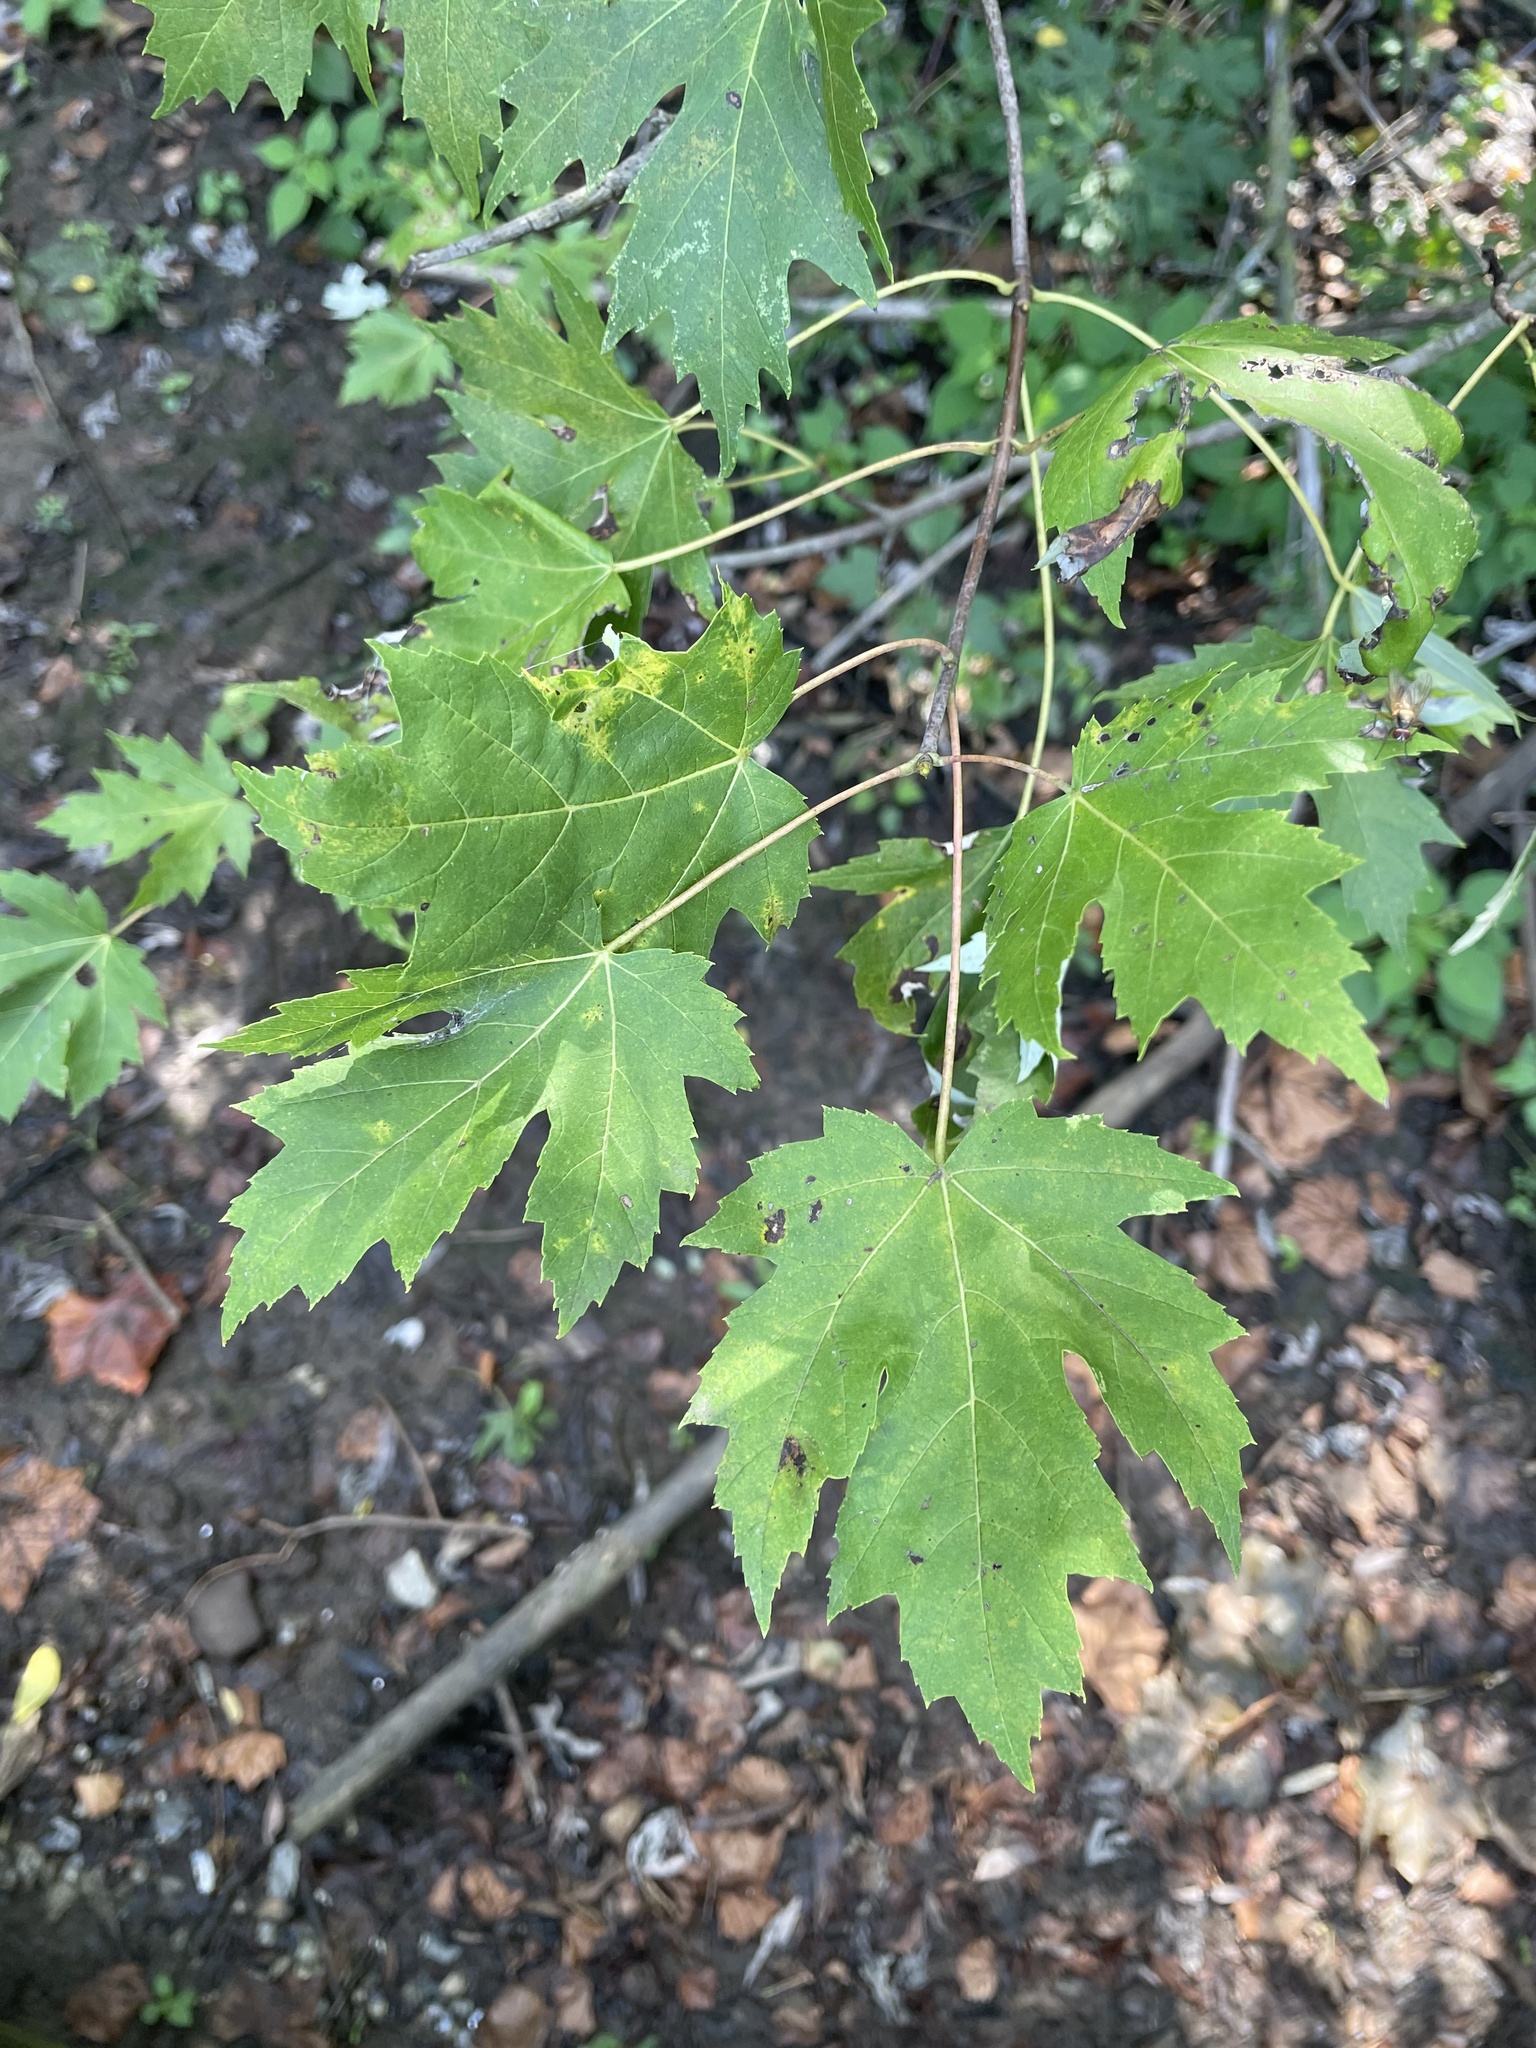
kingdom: Plantae
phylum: Tracheophyta
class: Magnoliopsida
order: Sapindales
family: Sapindaceae
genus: Acer
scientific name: Acer saccharinum
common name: Silver maple
